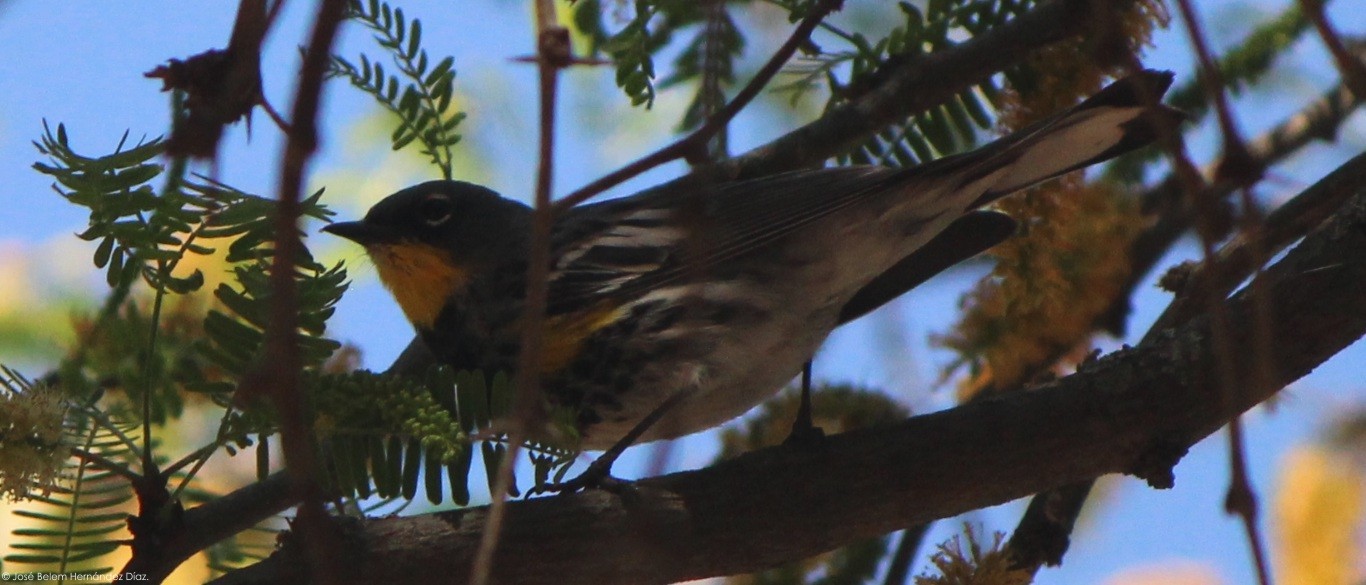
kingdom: Animalia
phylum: Chordata
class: Aves
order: Passeriformes
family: Parulidae
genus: Setophaga
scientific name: Setophaga auduboni
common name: Audubon's warbler
